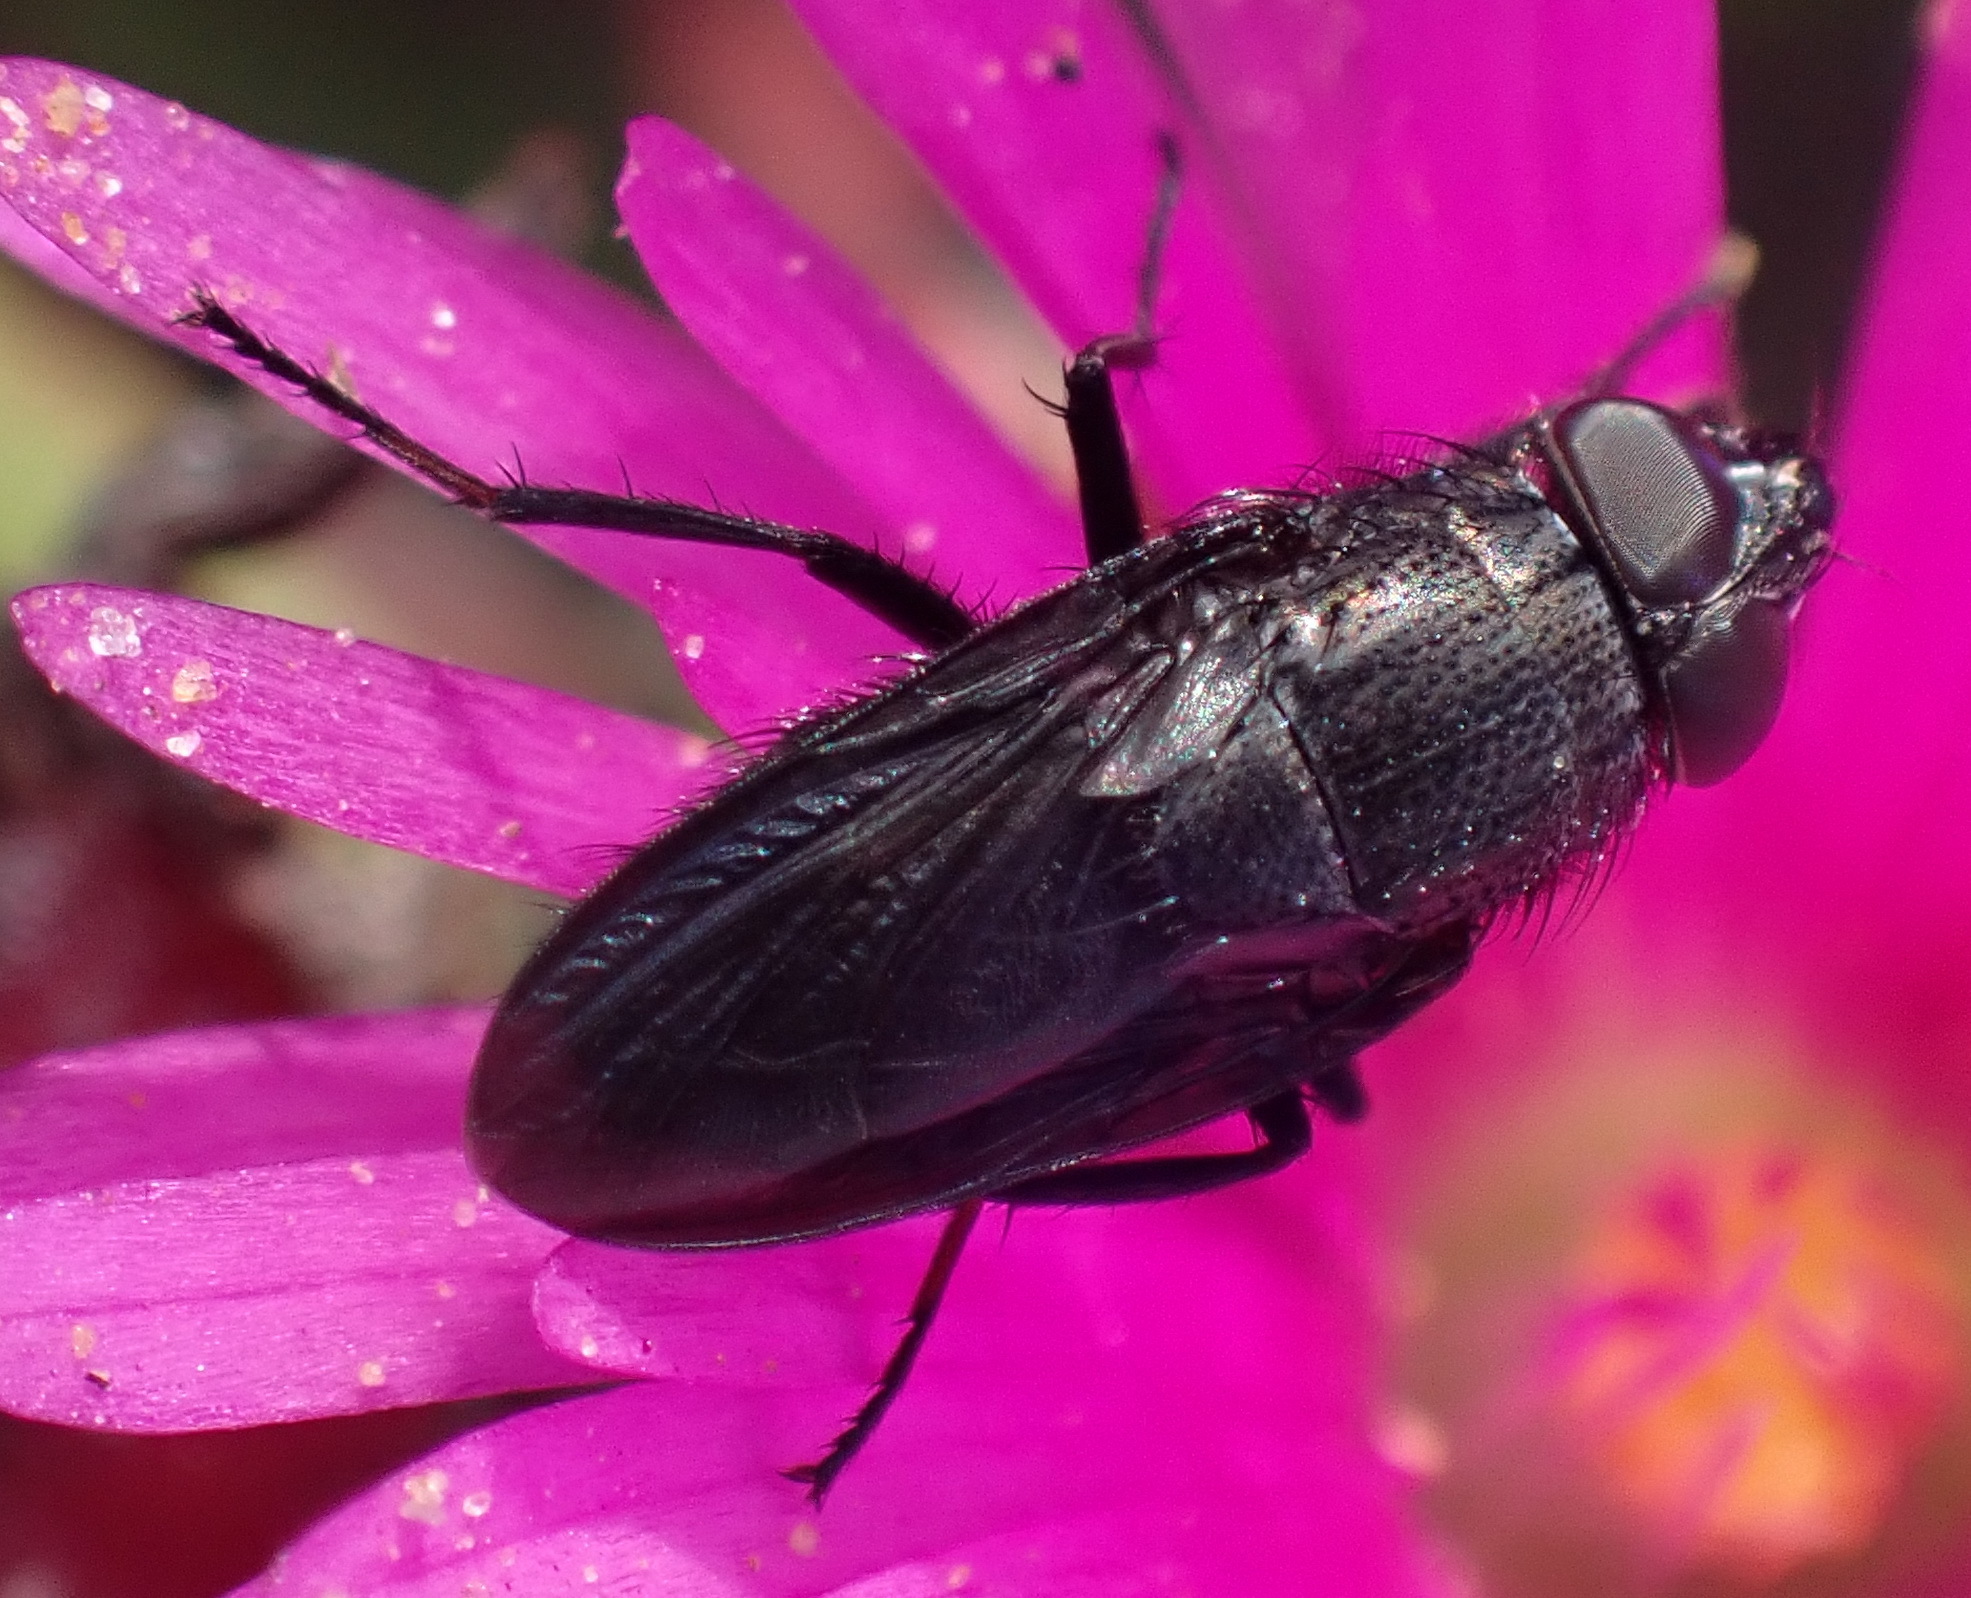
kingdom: Animalia
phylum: Arthropoda
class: Insecta
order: Diptera
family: Calliphoridae
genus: Cosmina
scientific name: Cosmina fuscipennis
